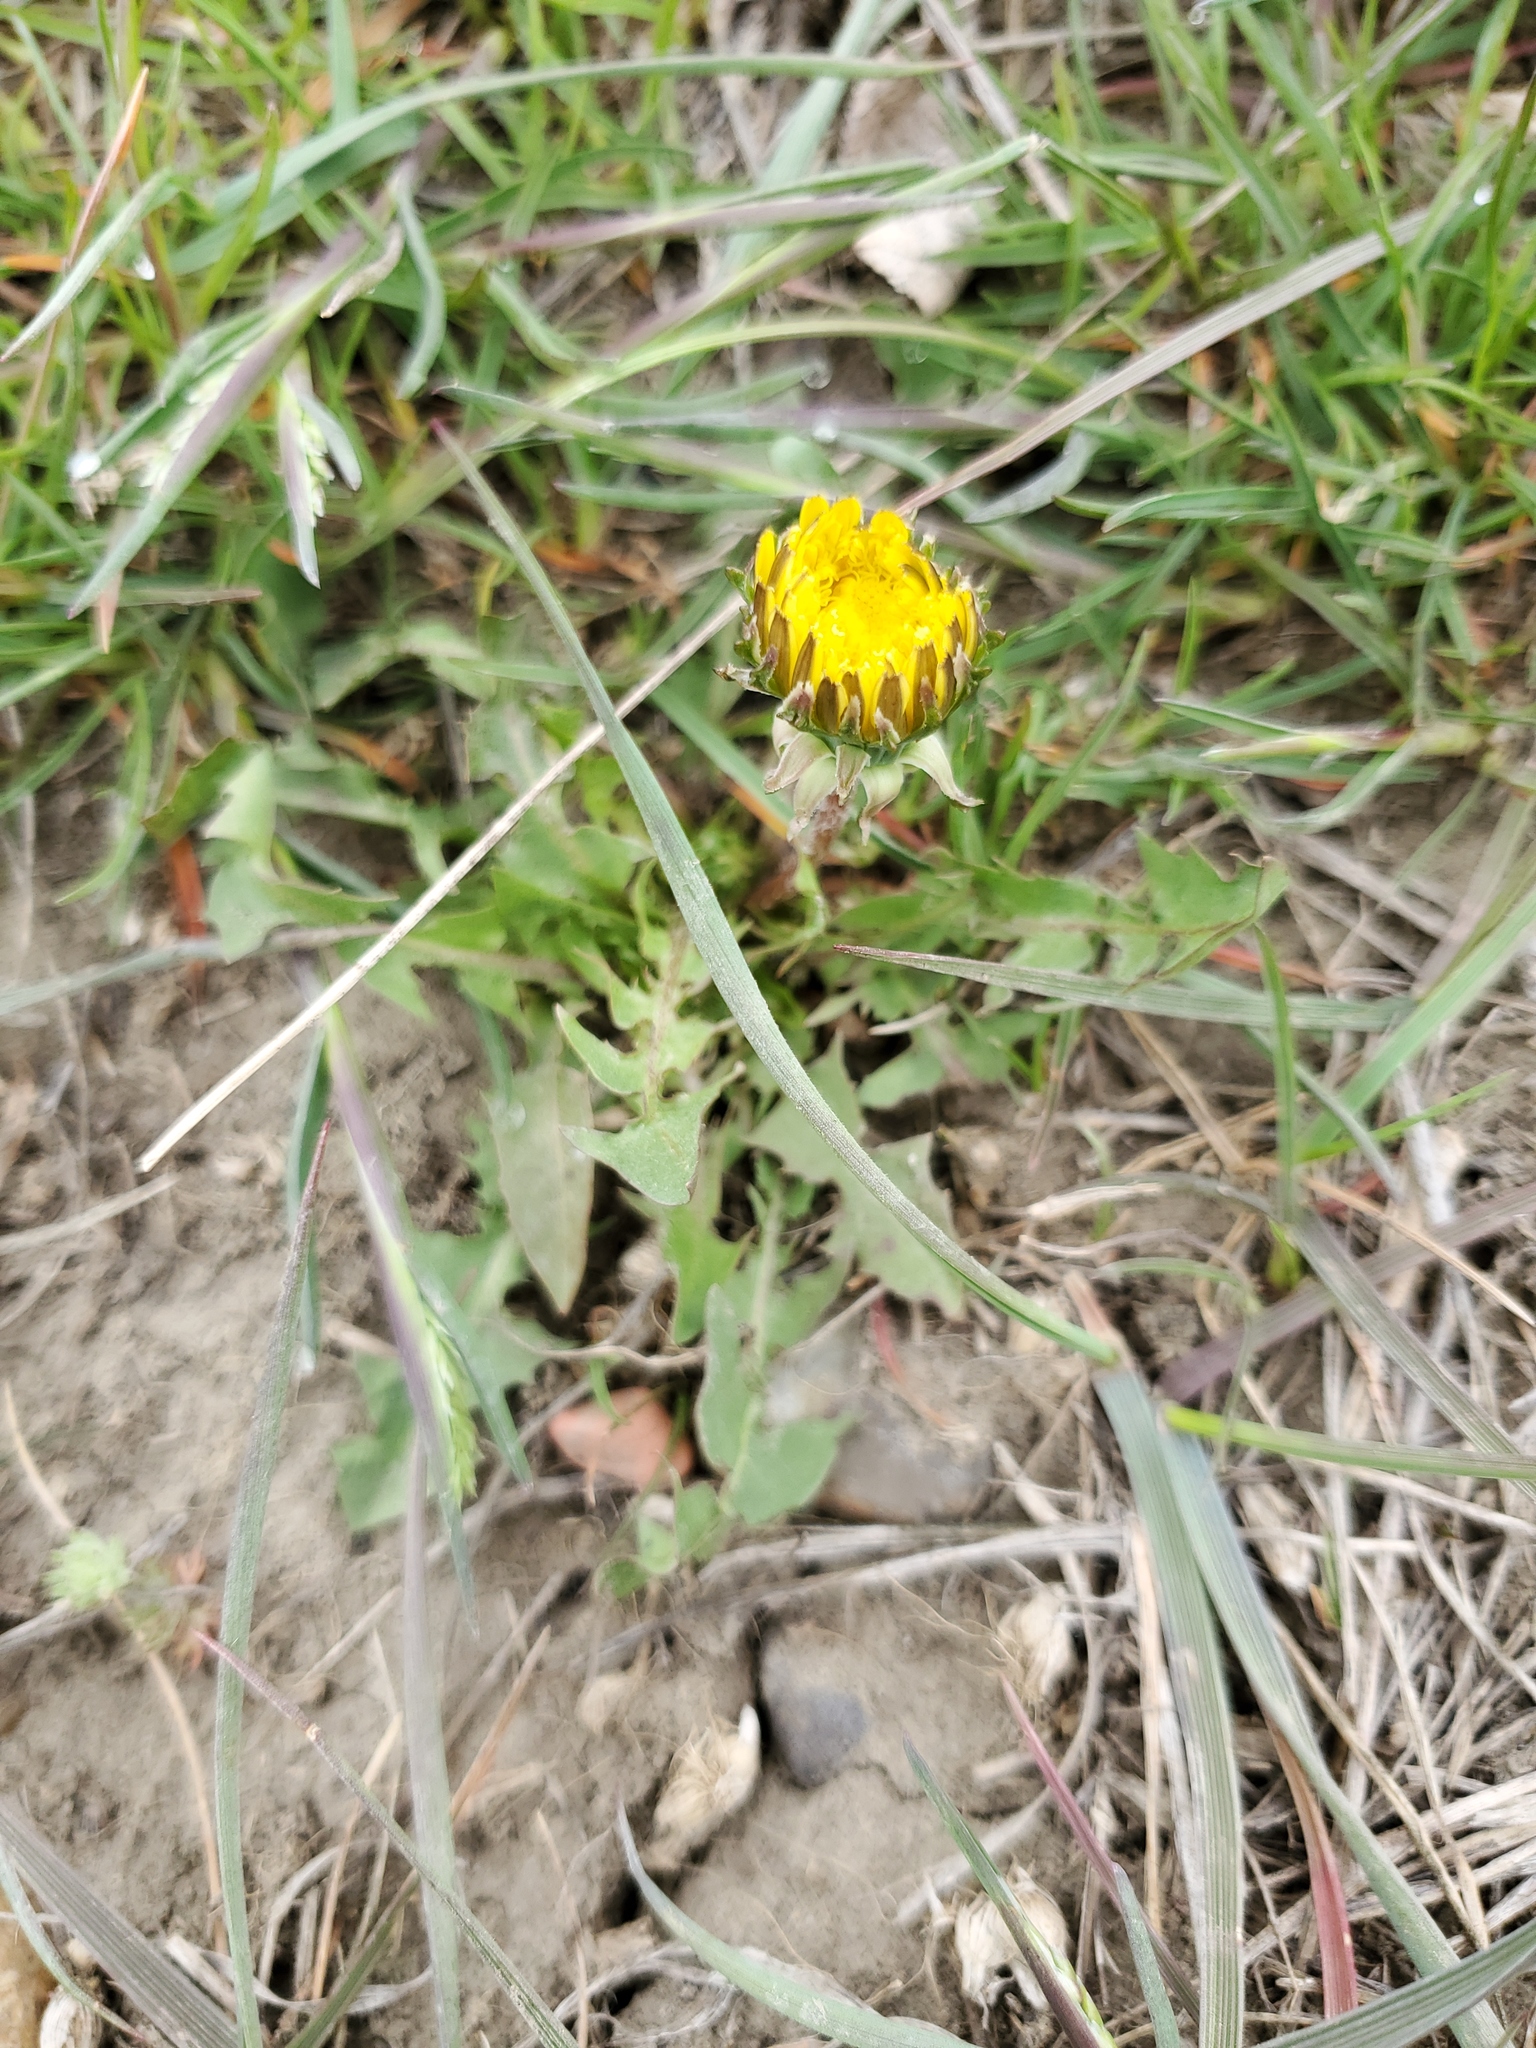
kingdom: Plantae
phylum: Tracheophyta
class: Magnoliopsida
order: Asterales
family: Asteraceae
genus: Taraxacum
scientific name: Taraxacum officinale
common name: Common dandelion
